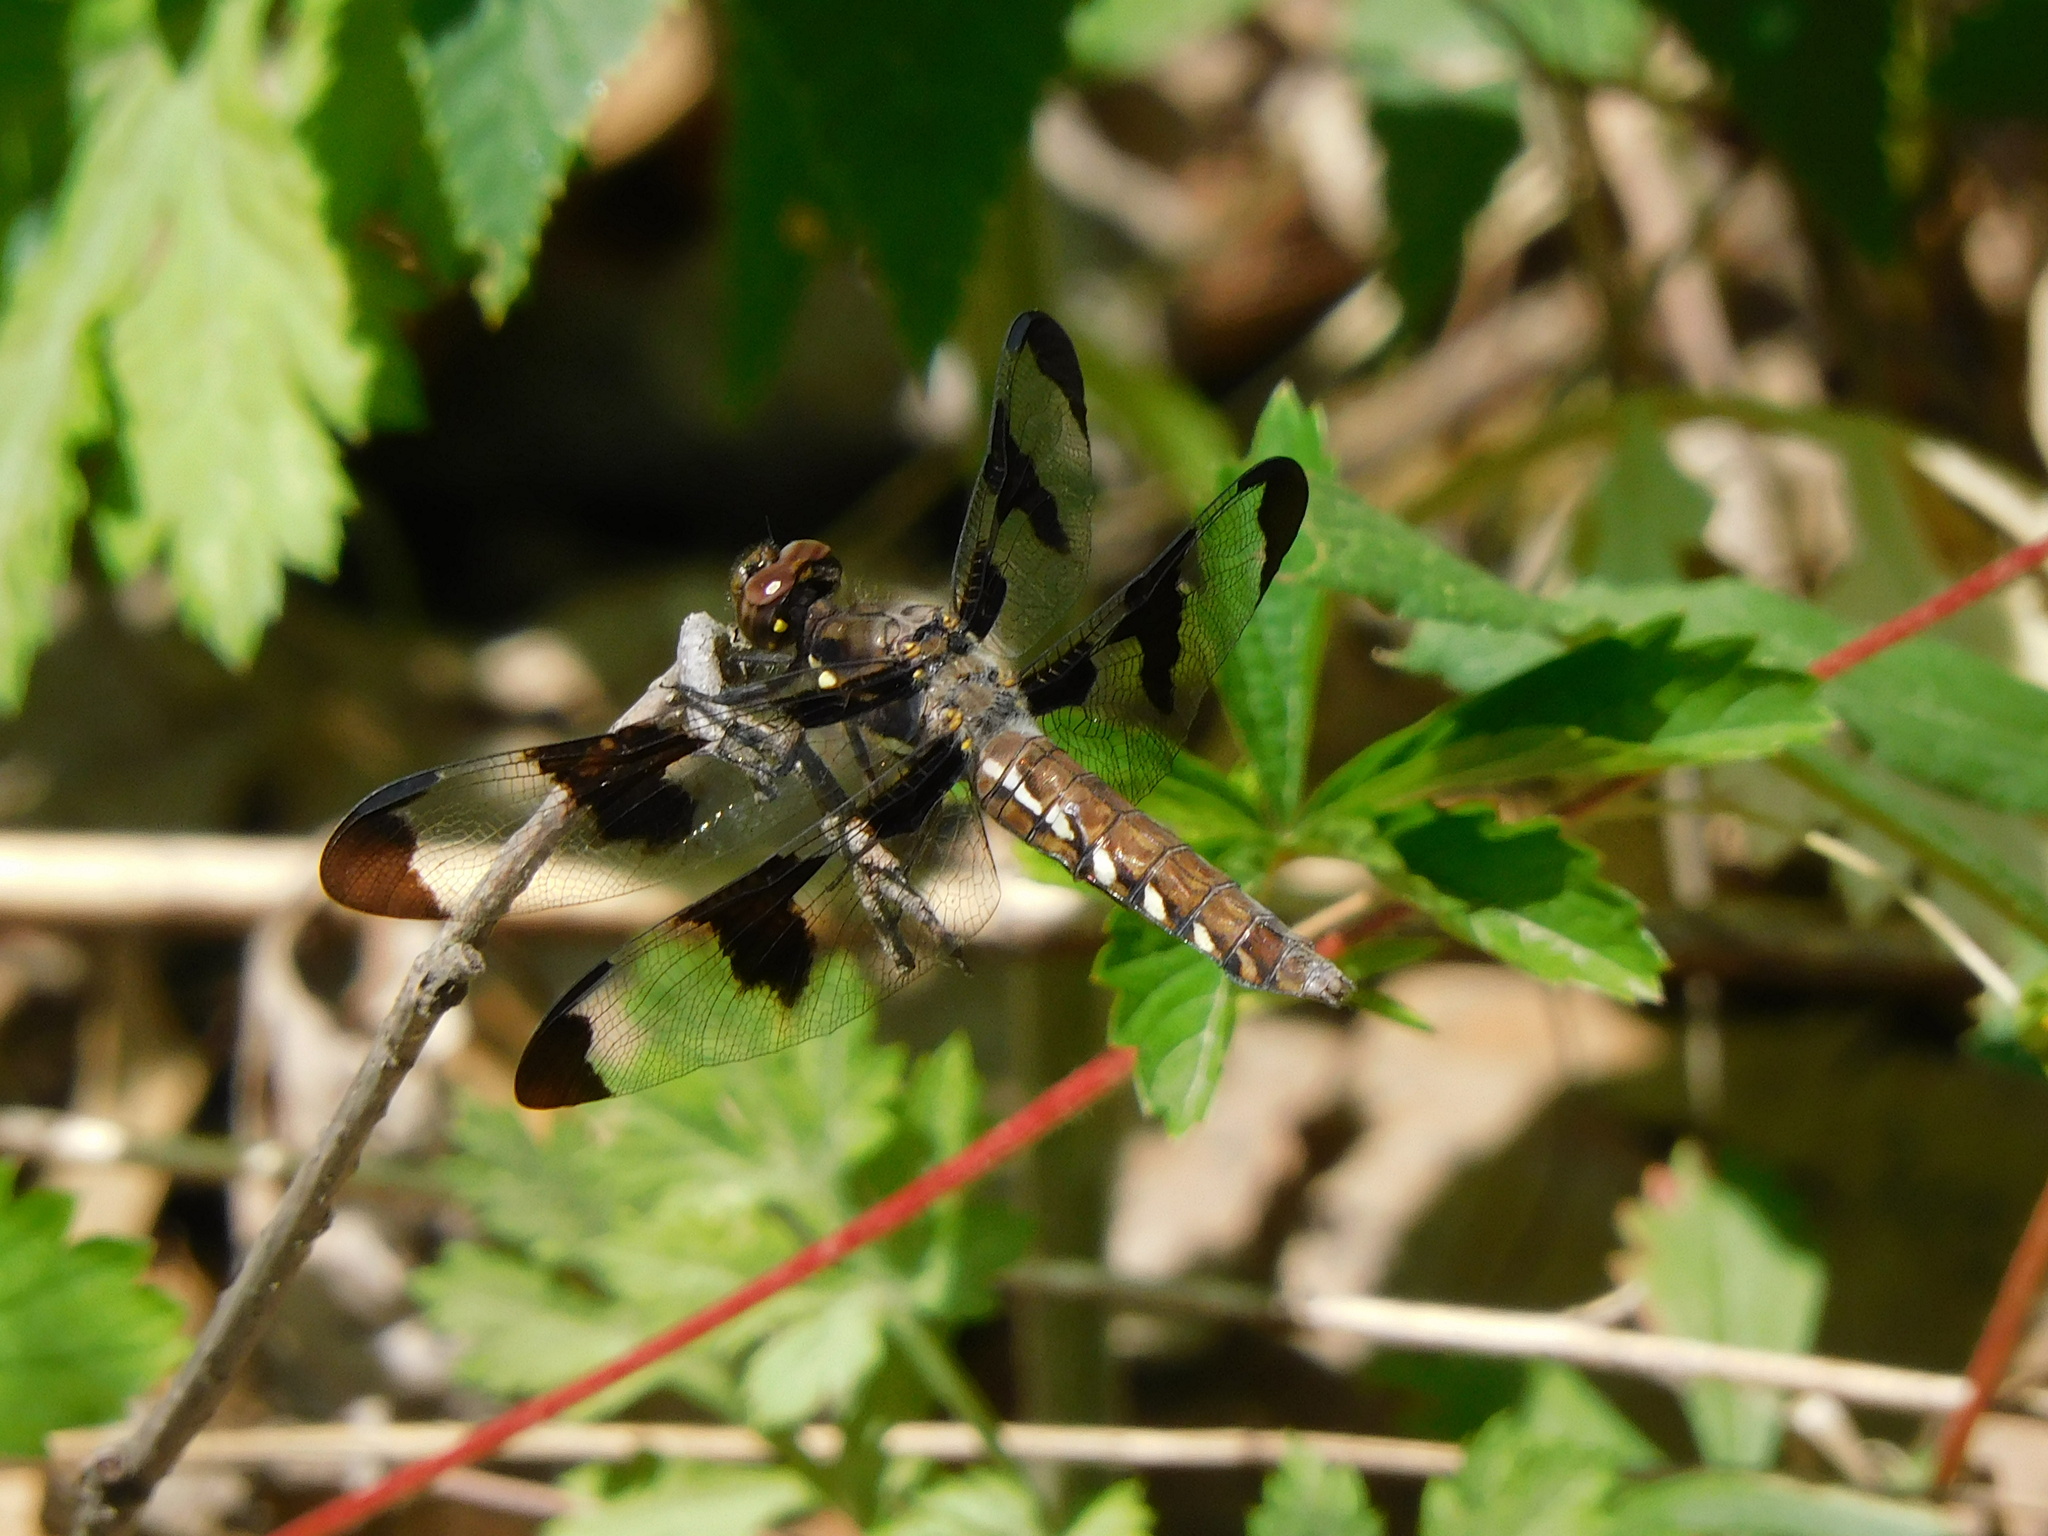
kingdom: Animalia
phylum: Arthropoda
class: Insecta
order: Odonata
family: Libellulidae
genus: Plathemis
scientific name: Plathemis lydia
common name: Common whitetail
